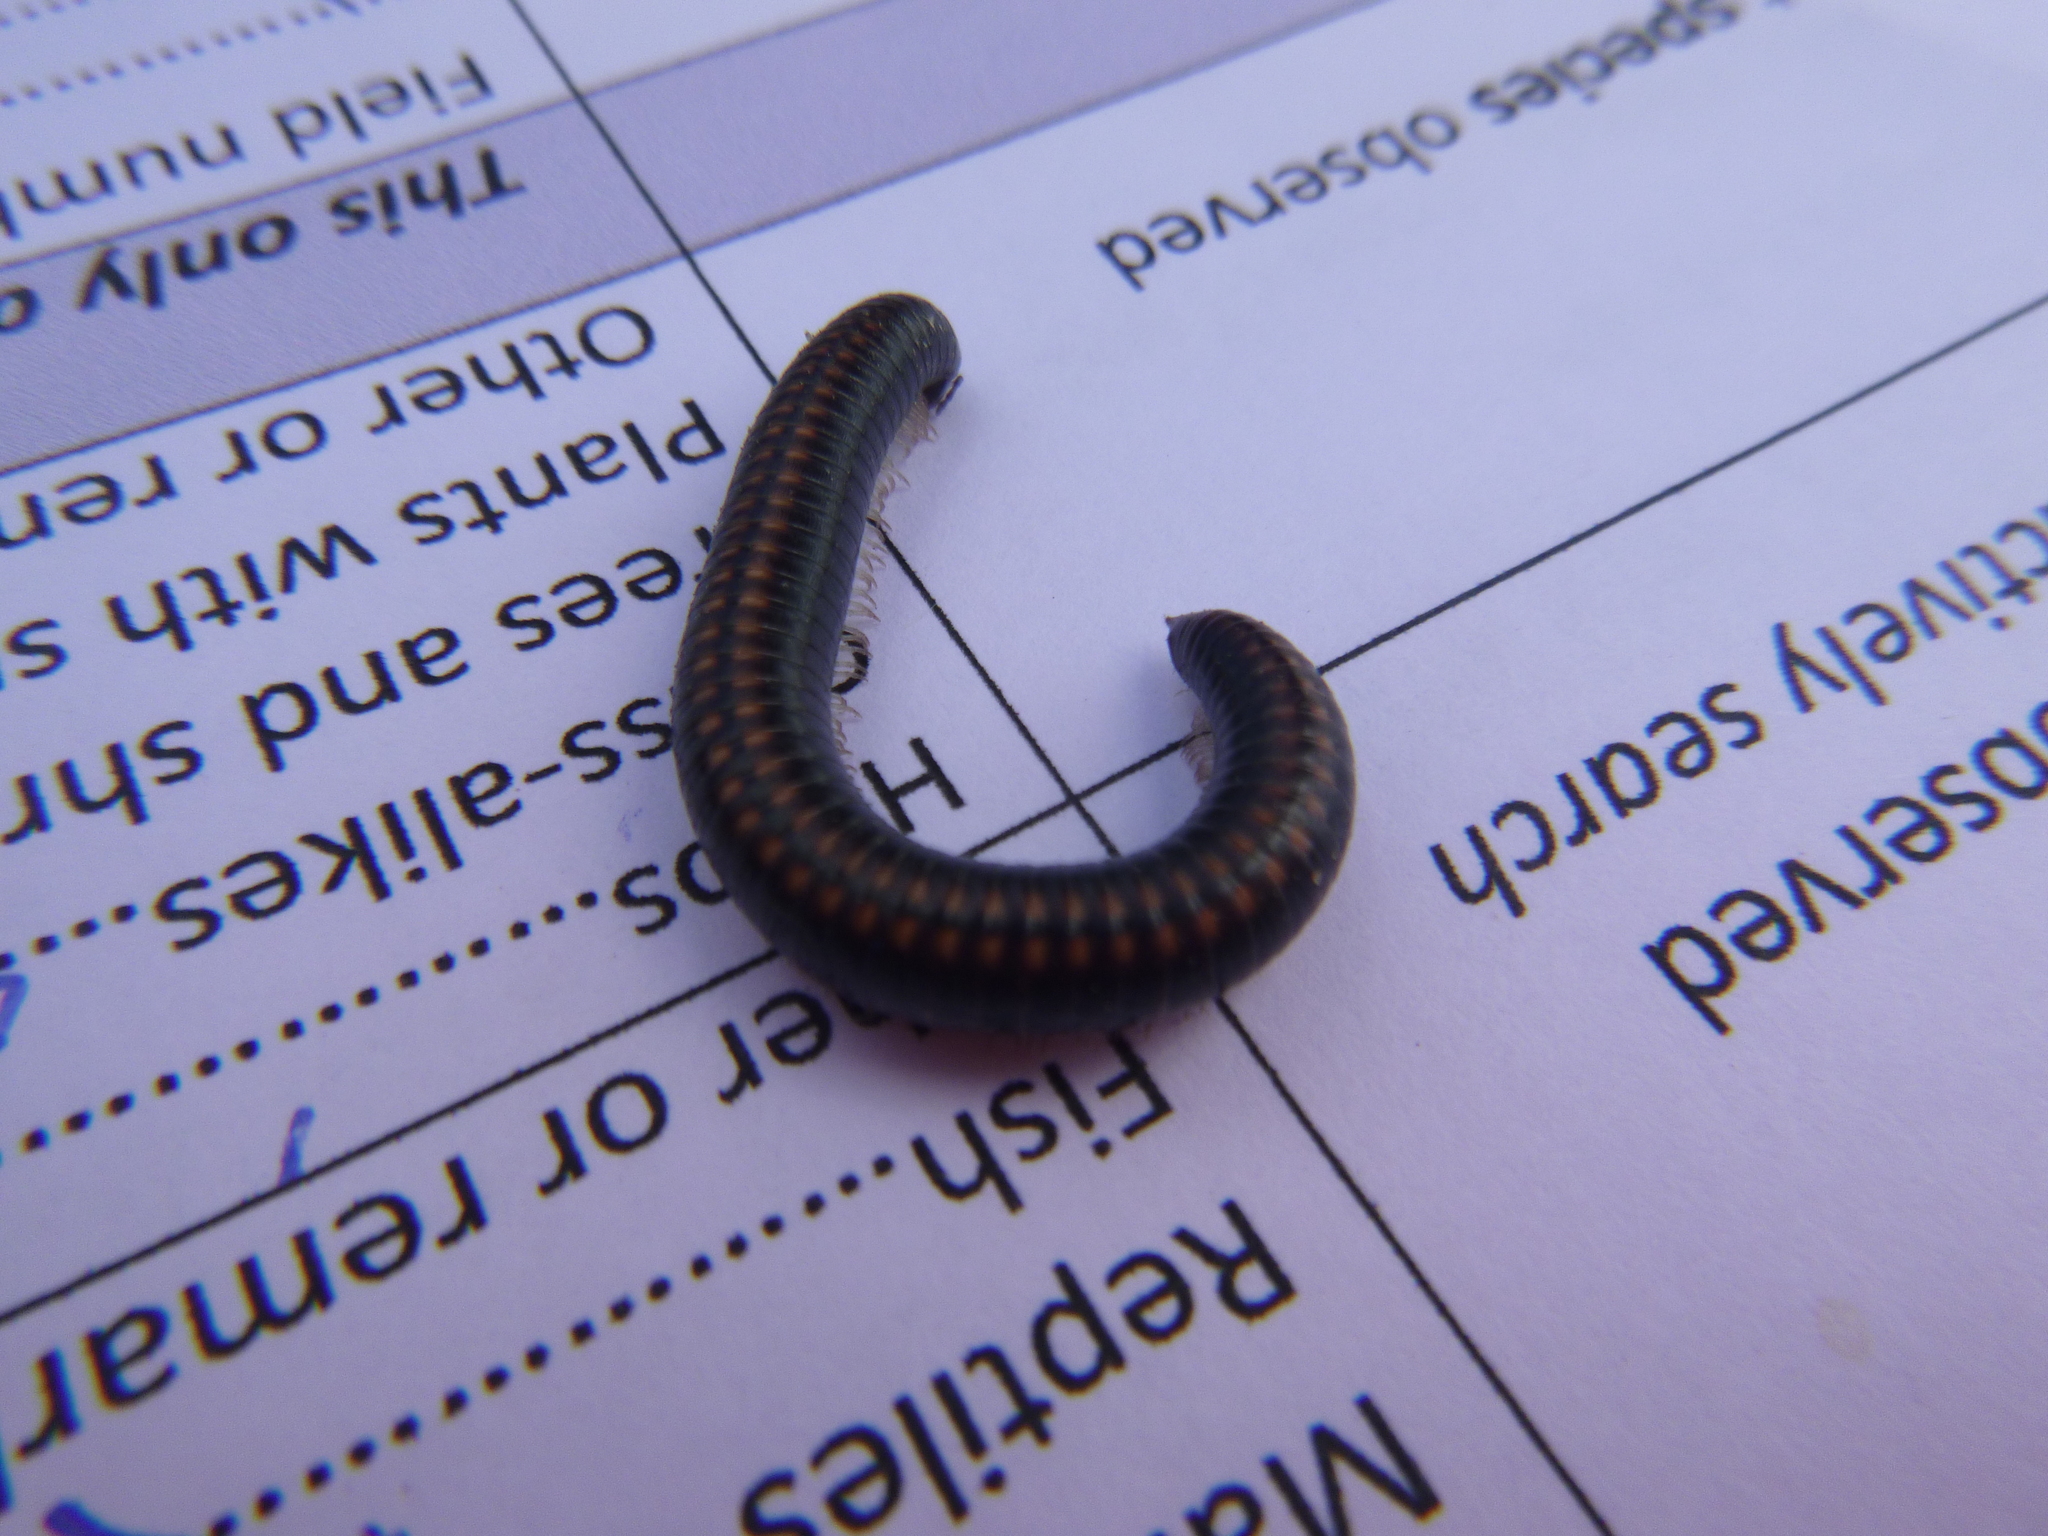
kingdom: Animalia
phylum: Arthropoda
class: Diplopoda
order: Julida
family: Julidae
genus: Ommatoiulus
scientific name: Ommatoiulus sabulosus
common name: Striped millipede
